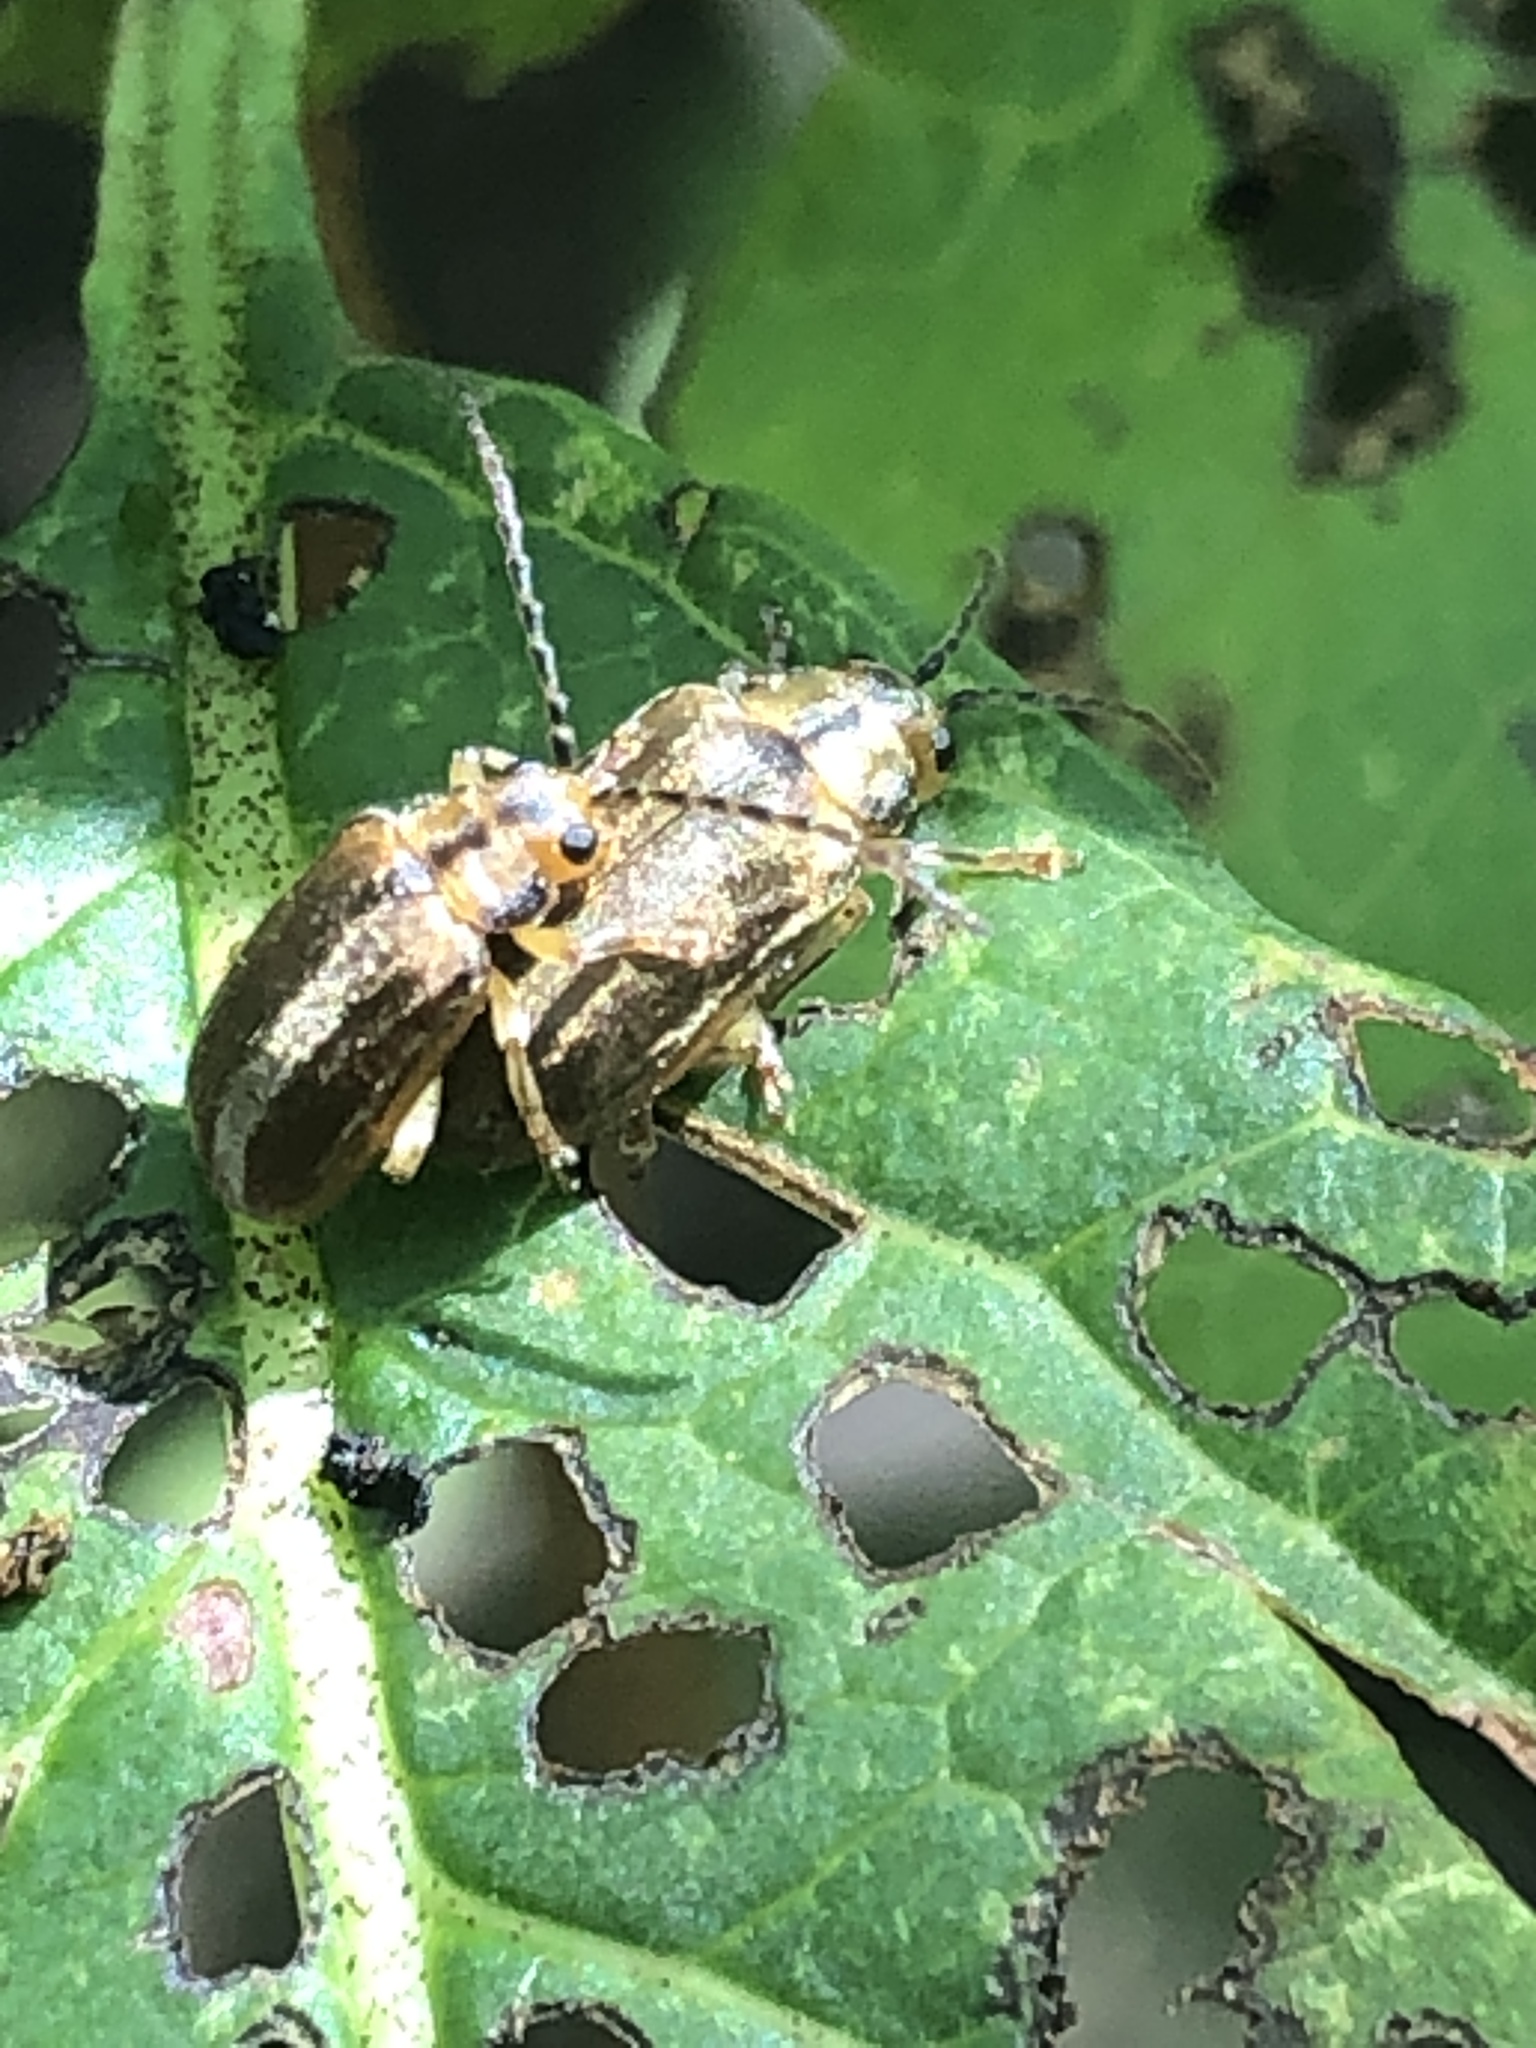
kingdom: Animalia
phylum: Arthropoda
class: Insecta
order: Coleoptera
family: Chrysomelidae
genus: Pyrrhalta
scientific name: Pyrrhalta viburni
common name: Guelder-rose leaf beetle
